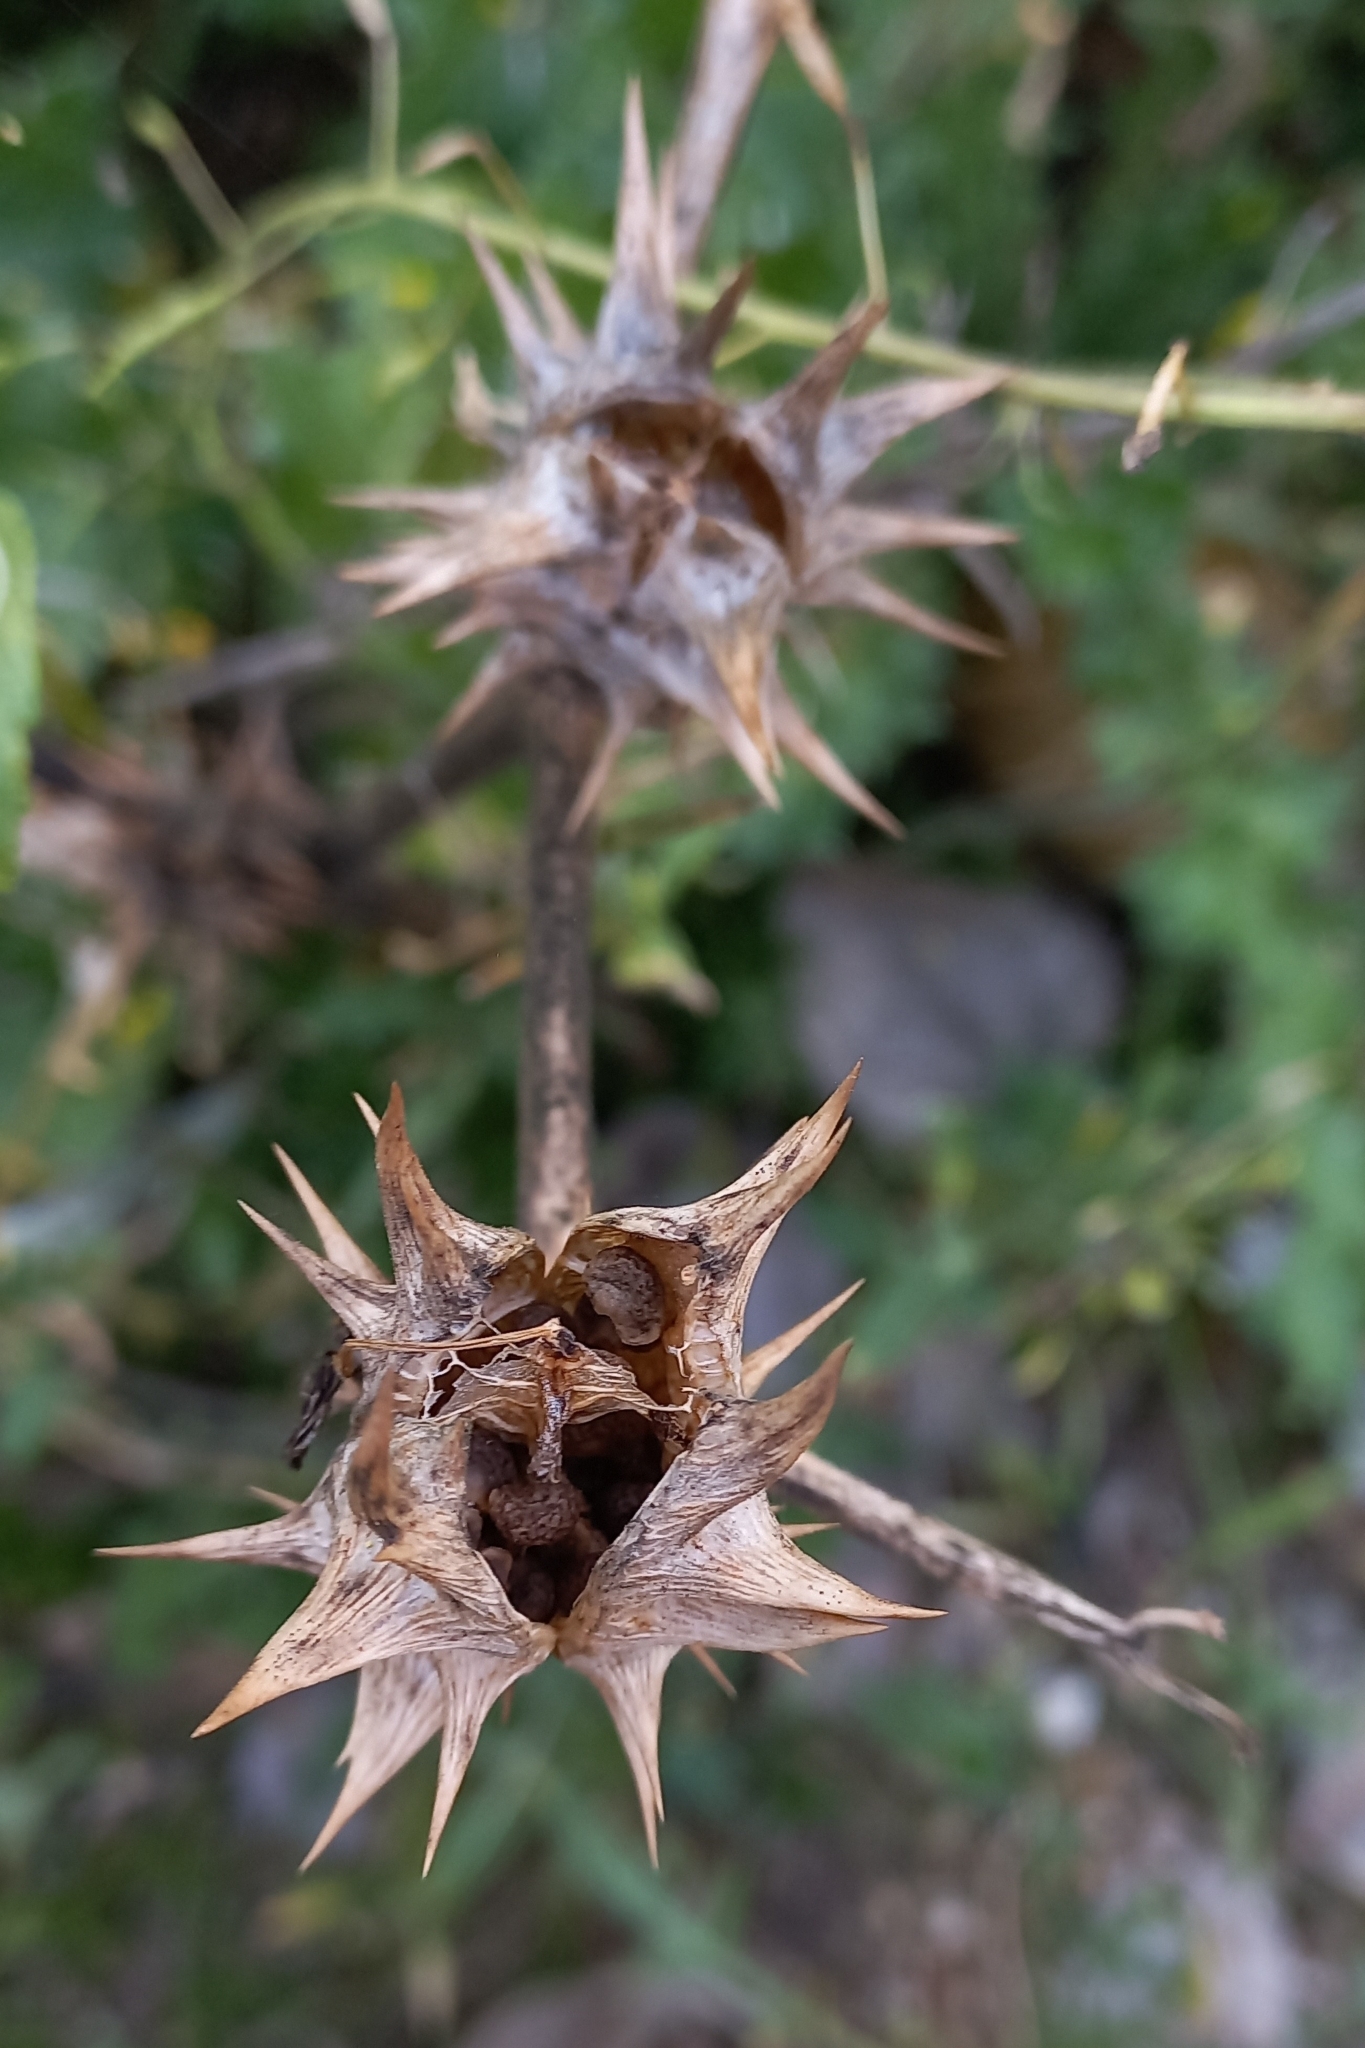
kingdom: Plantae
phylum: Tracheophyta
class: Magnoliopsida
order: Solanales
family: Solanaceae
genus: Datura
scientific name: Datura ferox
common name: Angel's-trumpets
